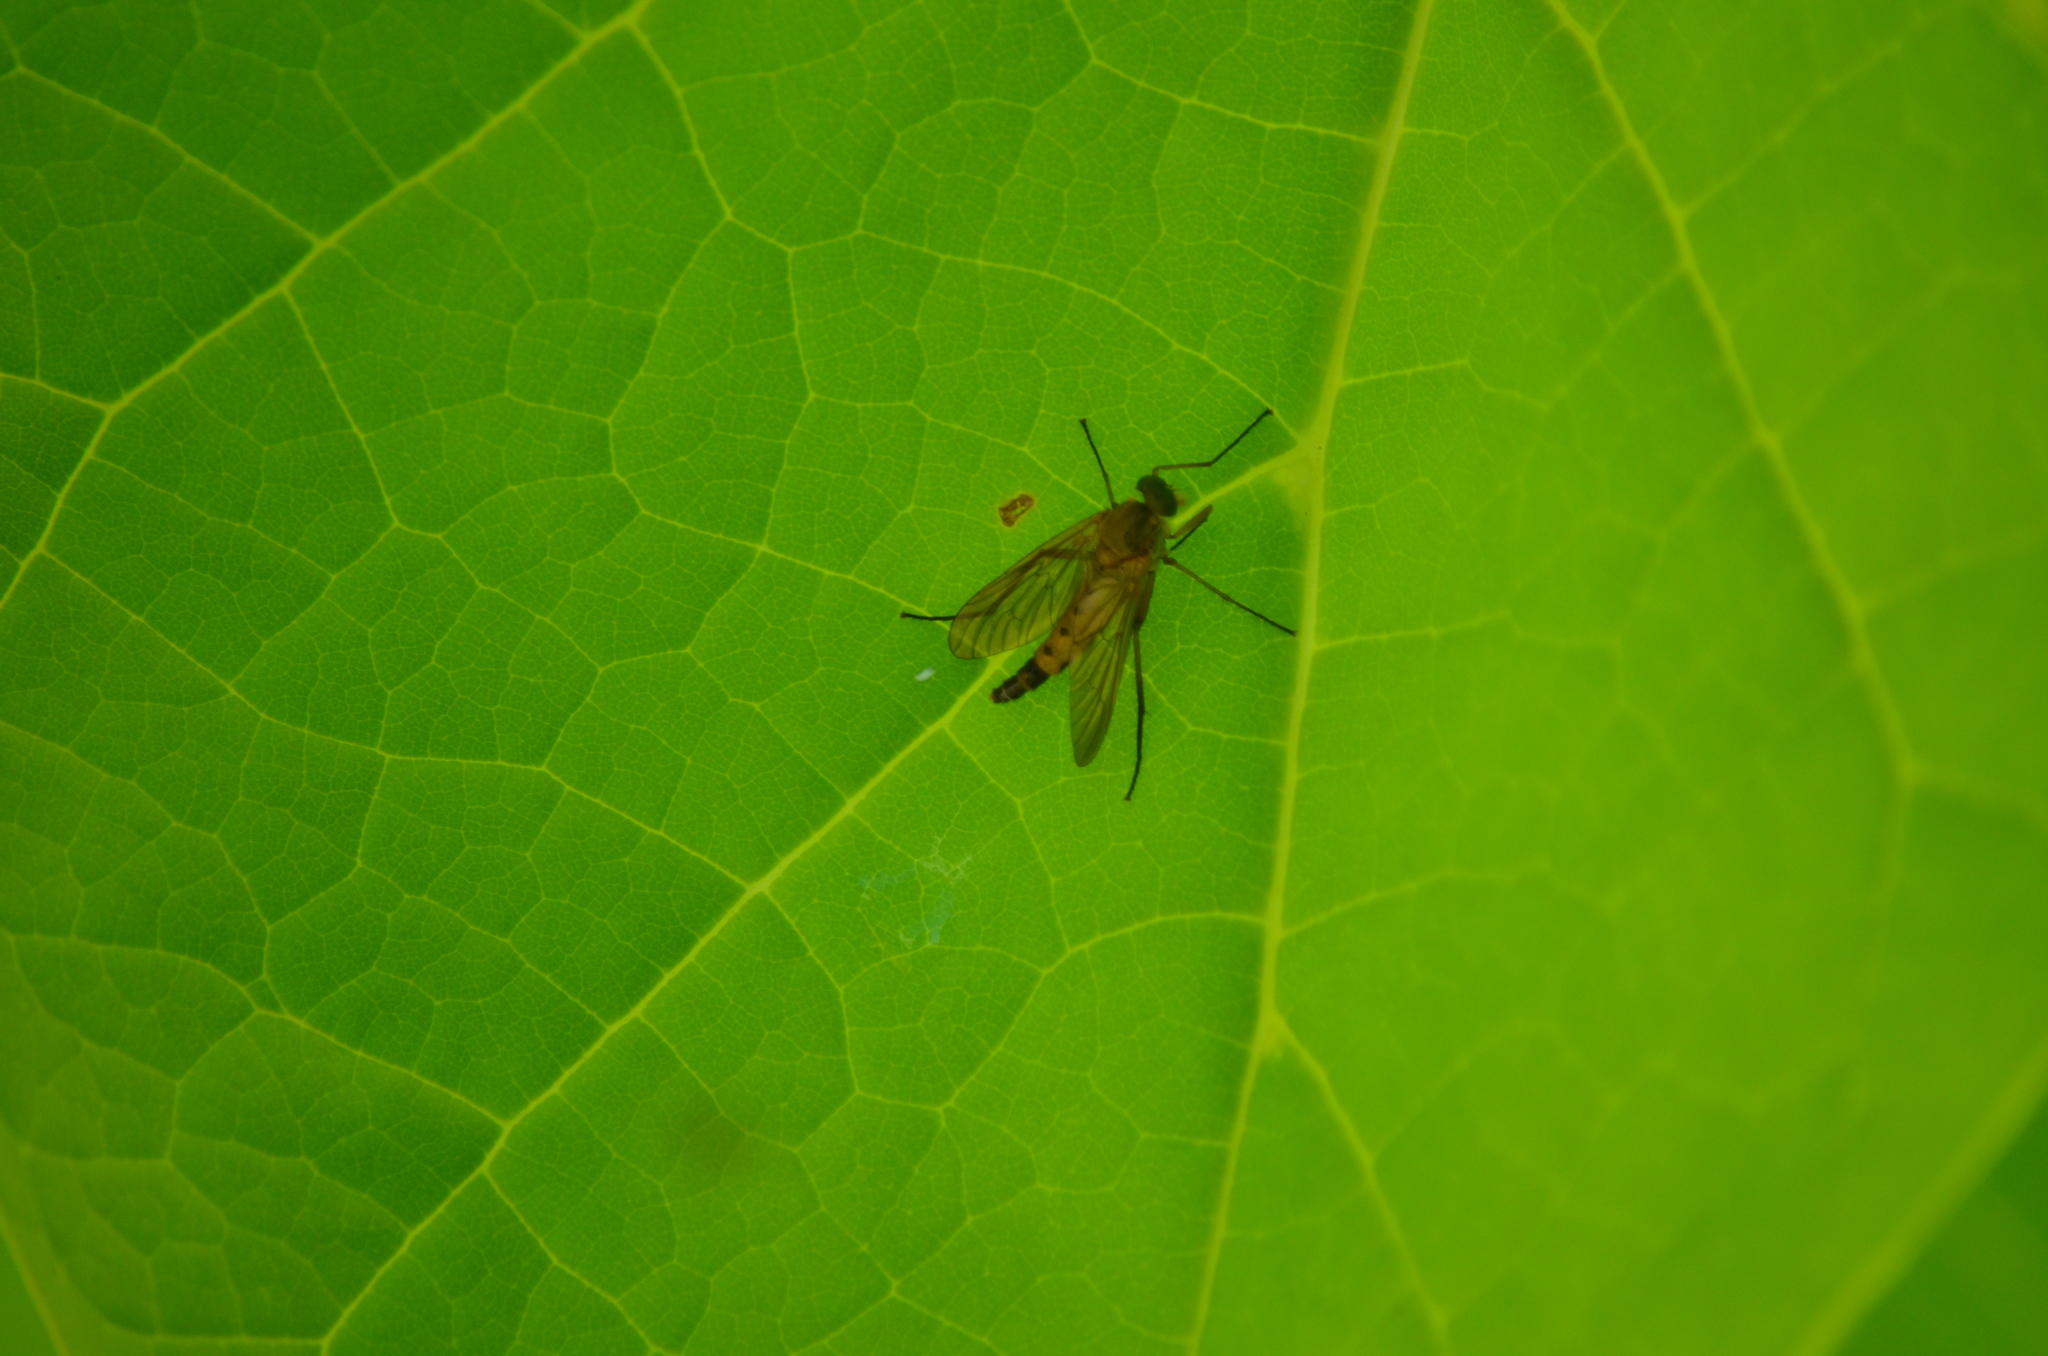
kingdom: Animalia
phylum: Arthropoda
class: Insecta
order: Diptera
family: Rhagionidae
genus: Rhagio
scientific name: Rhagio tringaria
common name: Marsh snipefly
